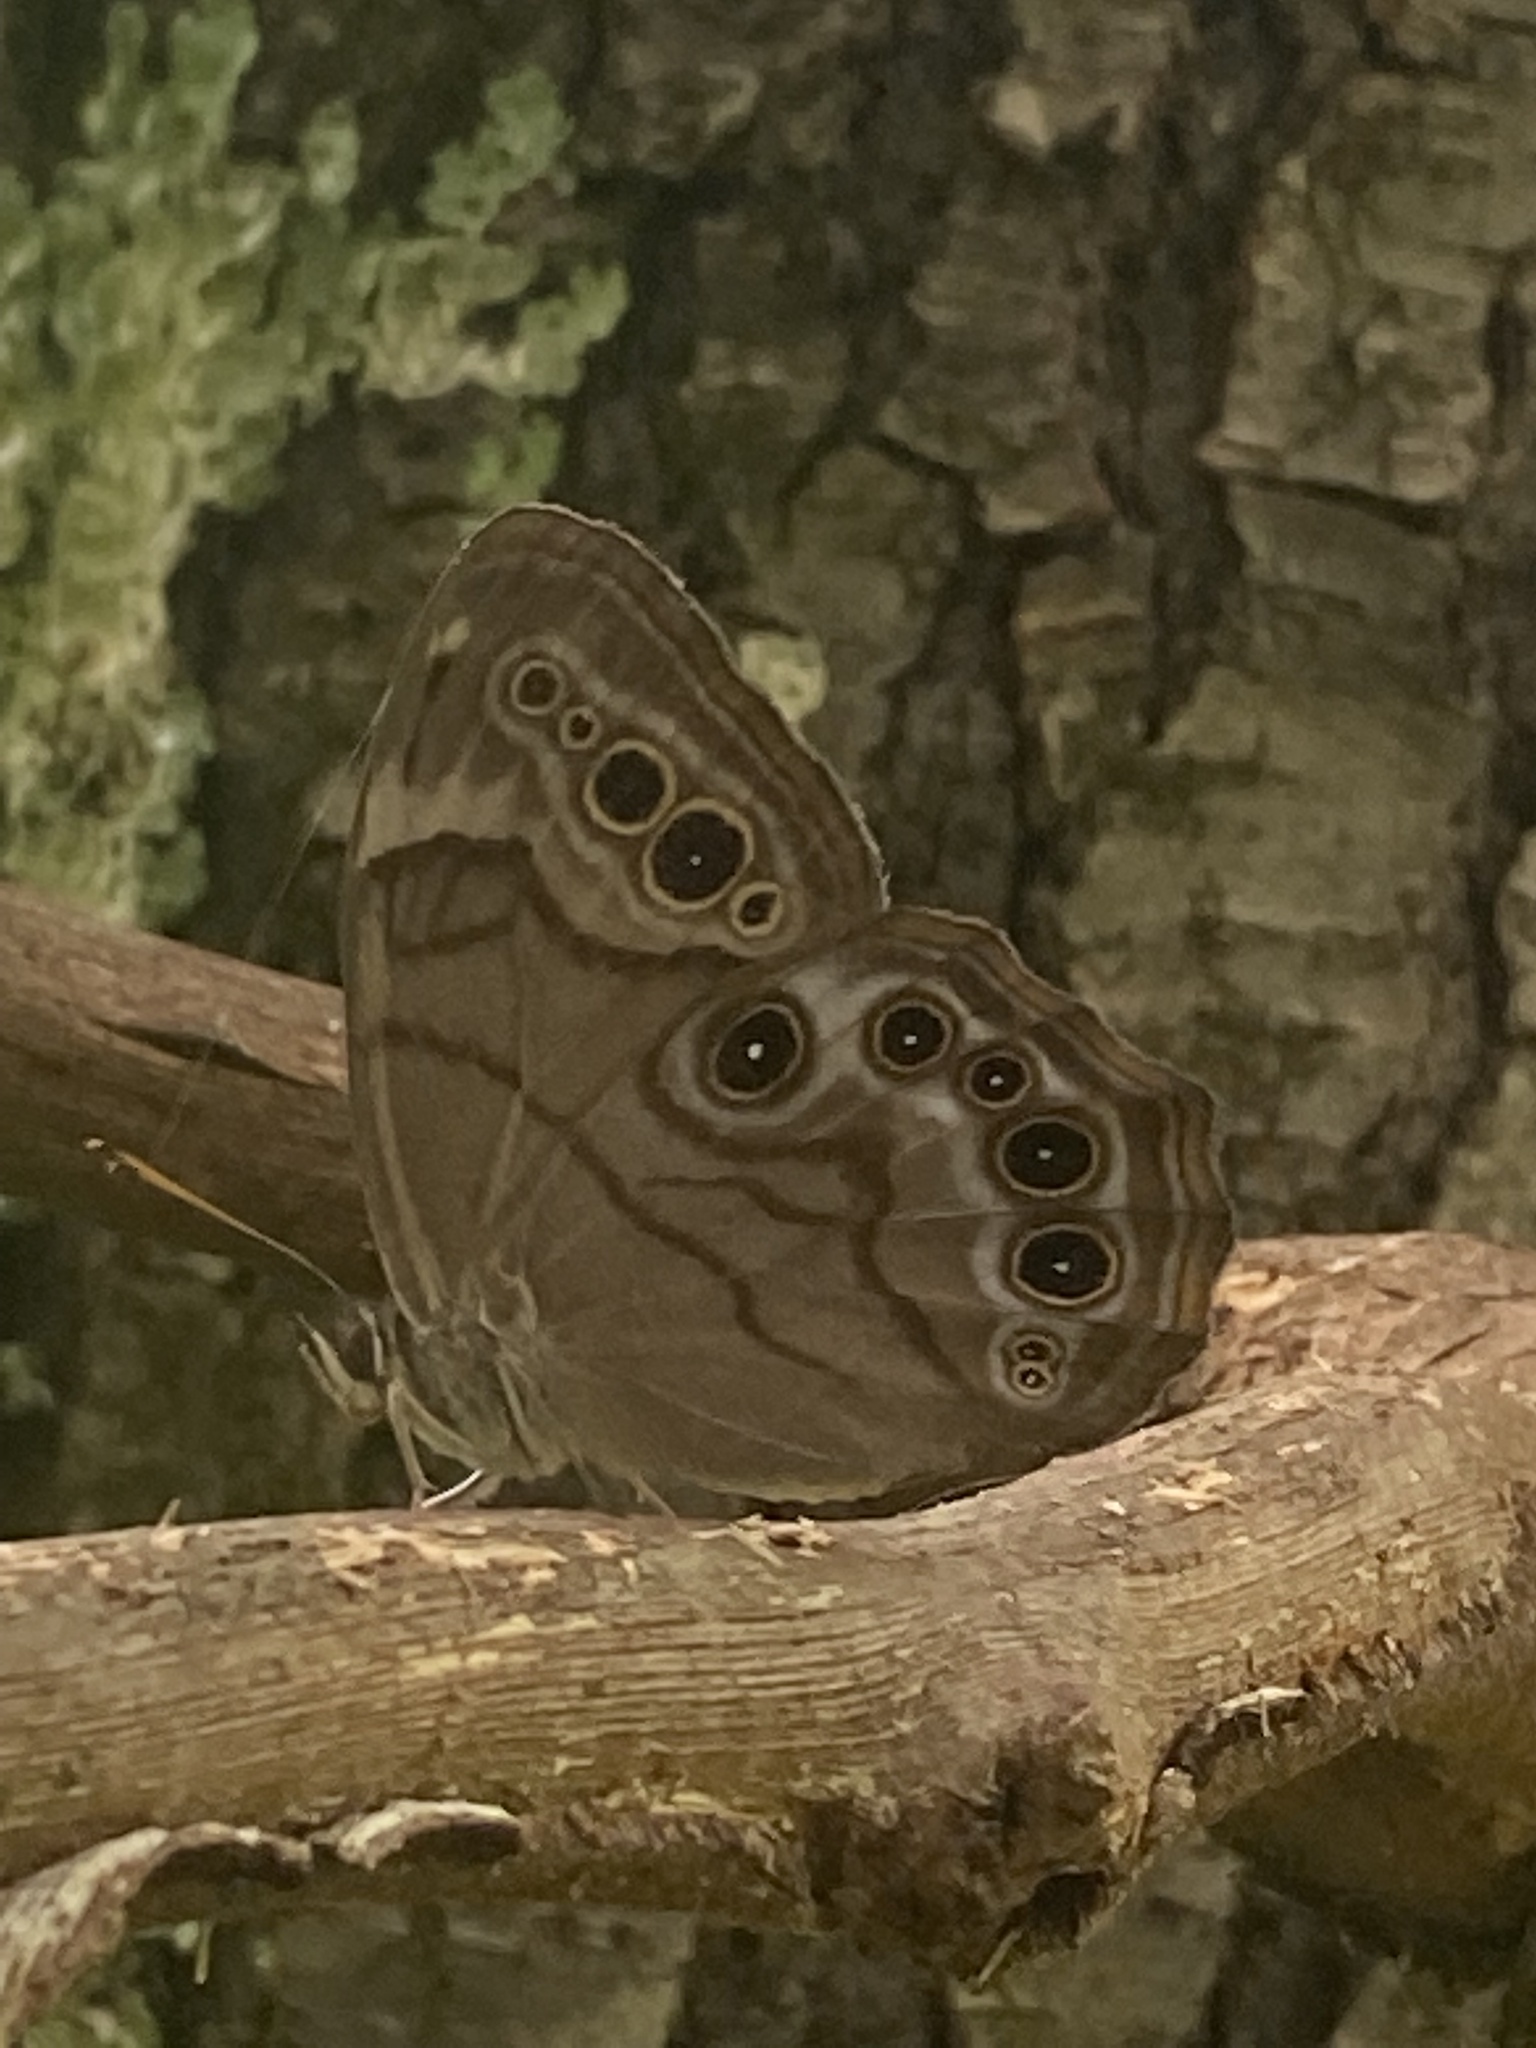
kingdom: Animalia
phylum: Arthropoda
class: Insecta
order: Lepidoptera
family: Nymphalidae
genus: Lethe
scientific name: Lethe anthedon
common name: Northern pearly-eye
